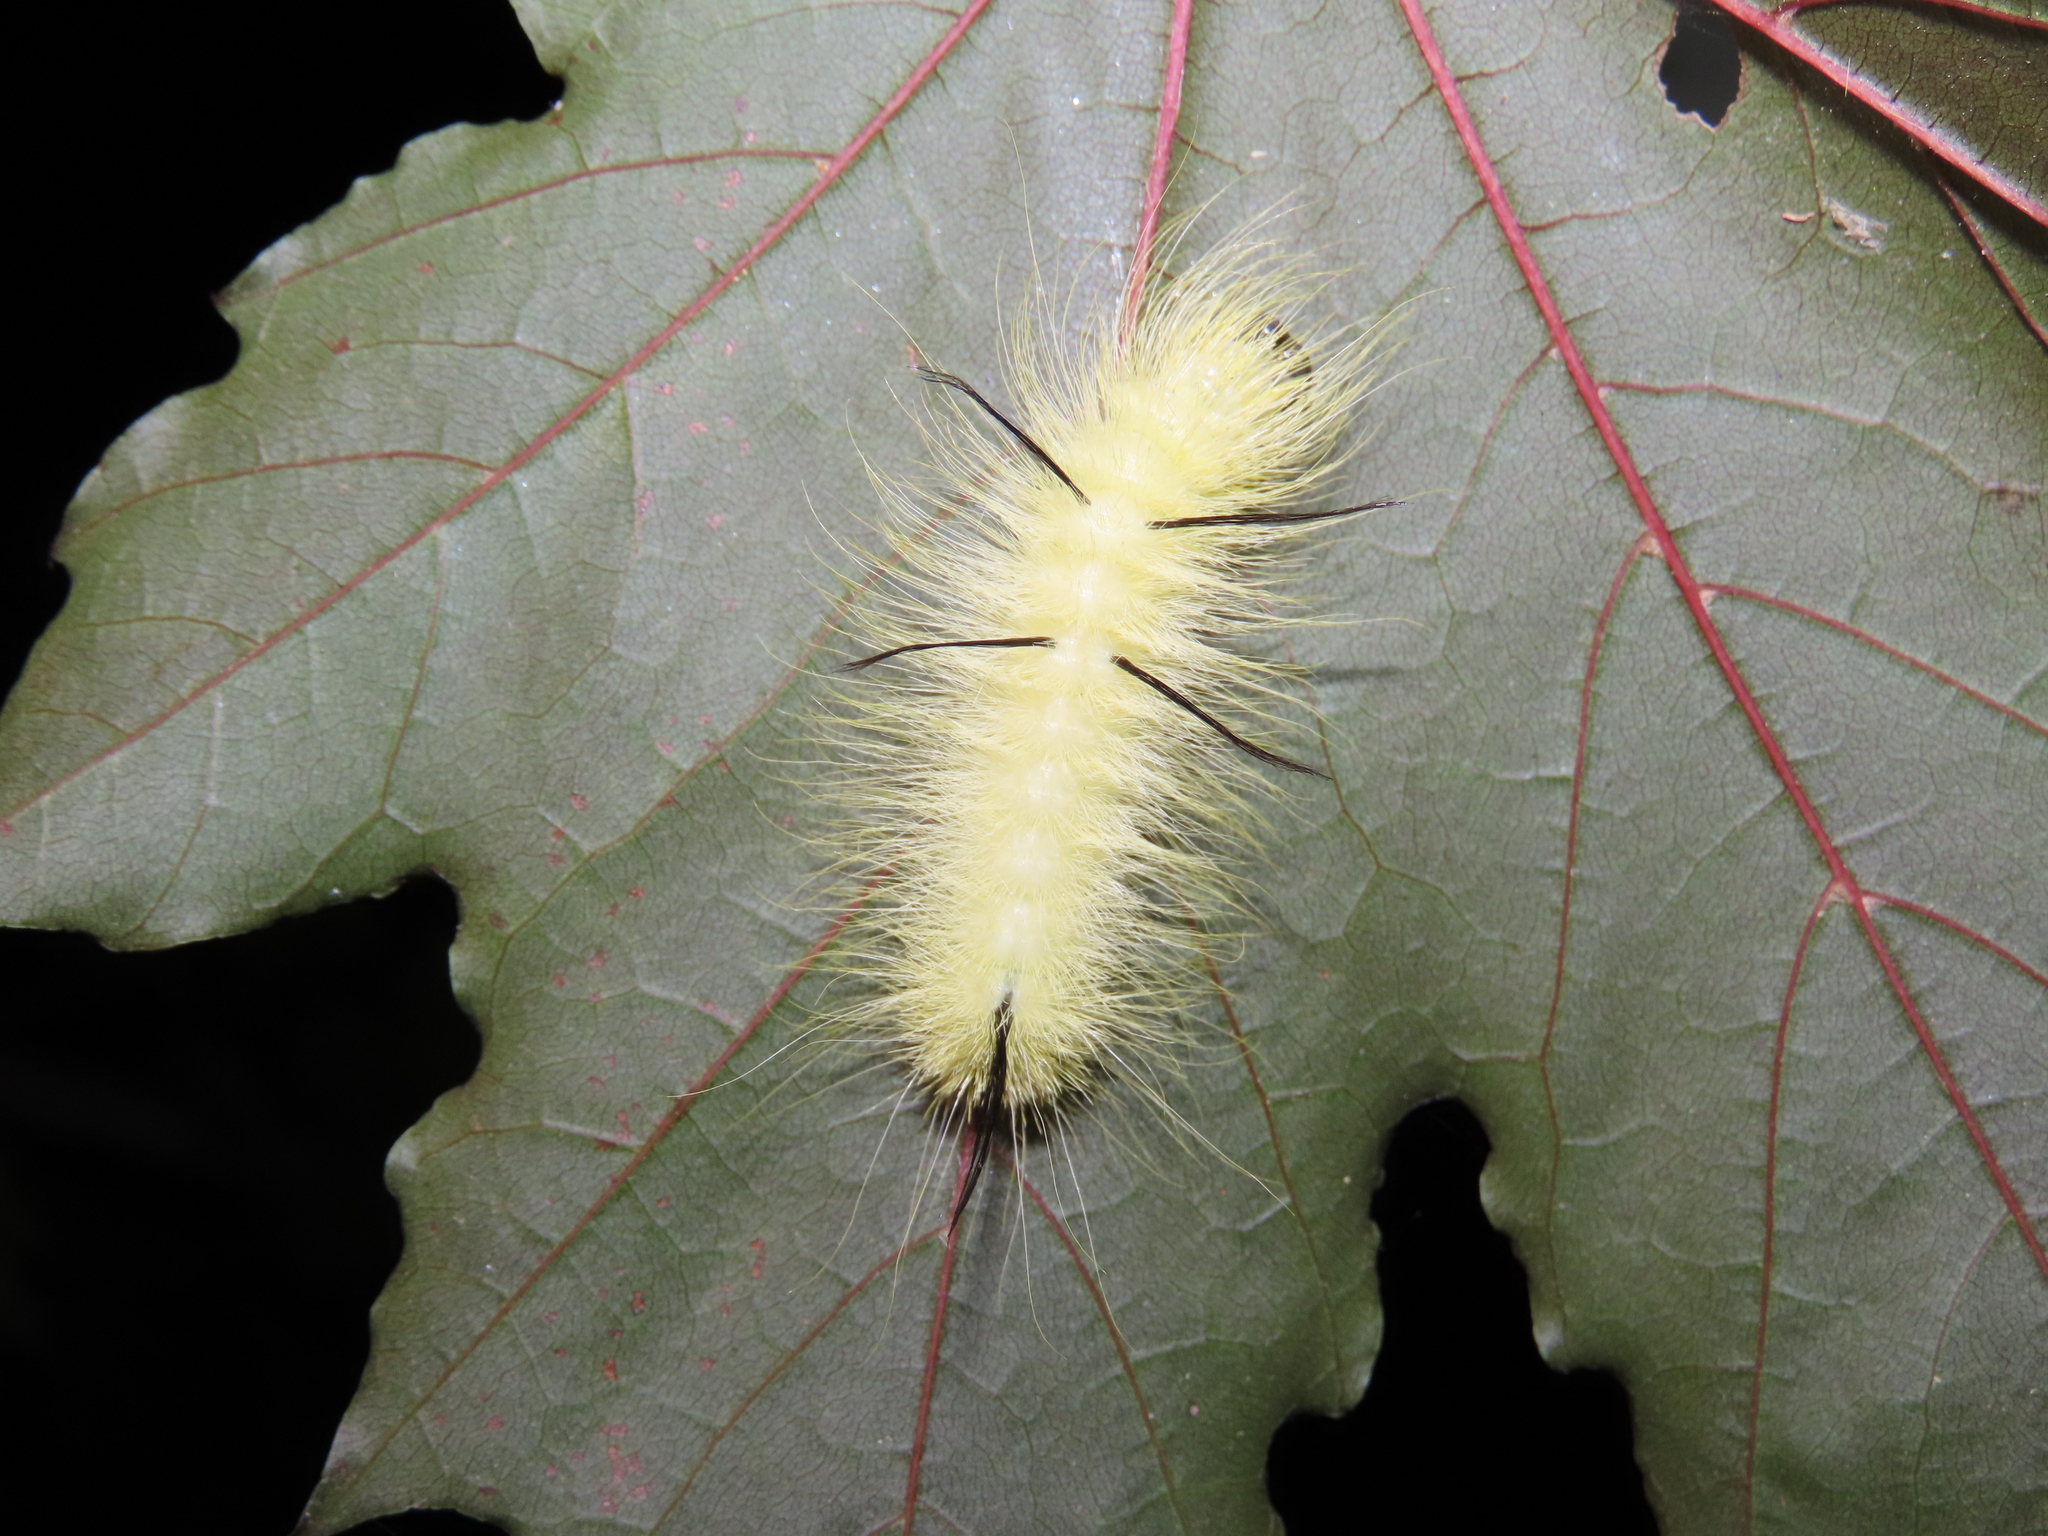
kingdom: Animalia
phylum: Arthropoda
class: Insecta
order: Lepidoptera
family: Noctuidae
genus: Acronicta
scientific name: Acronicta americana
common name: American dagger
